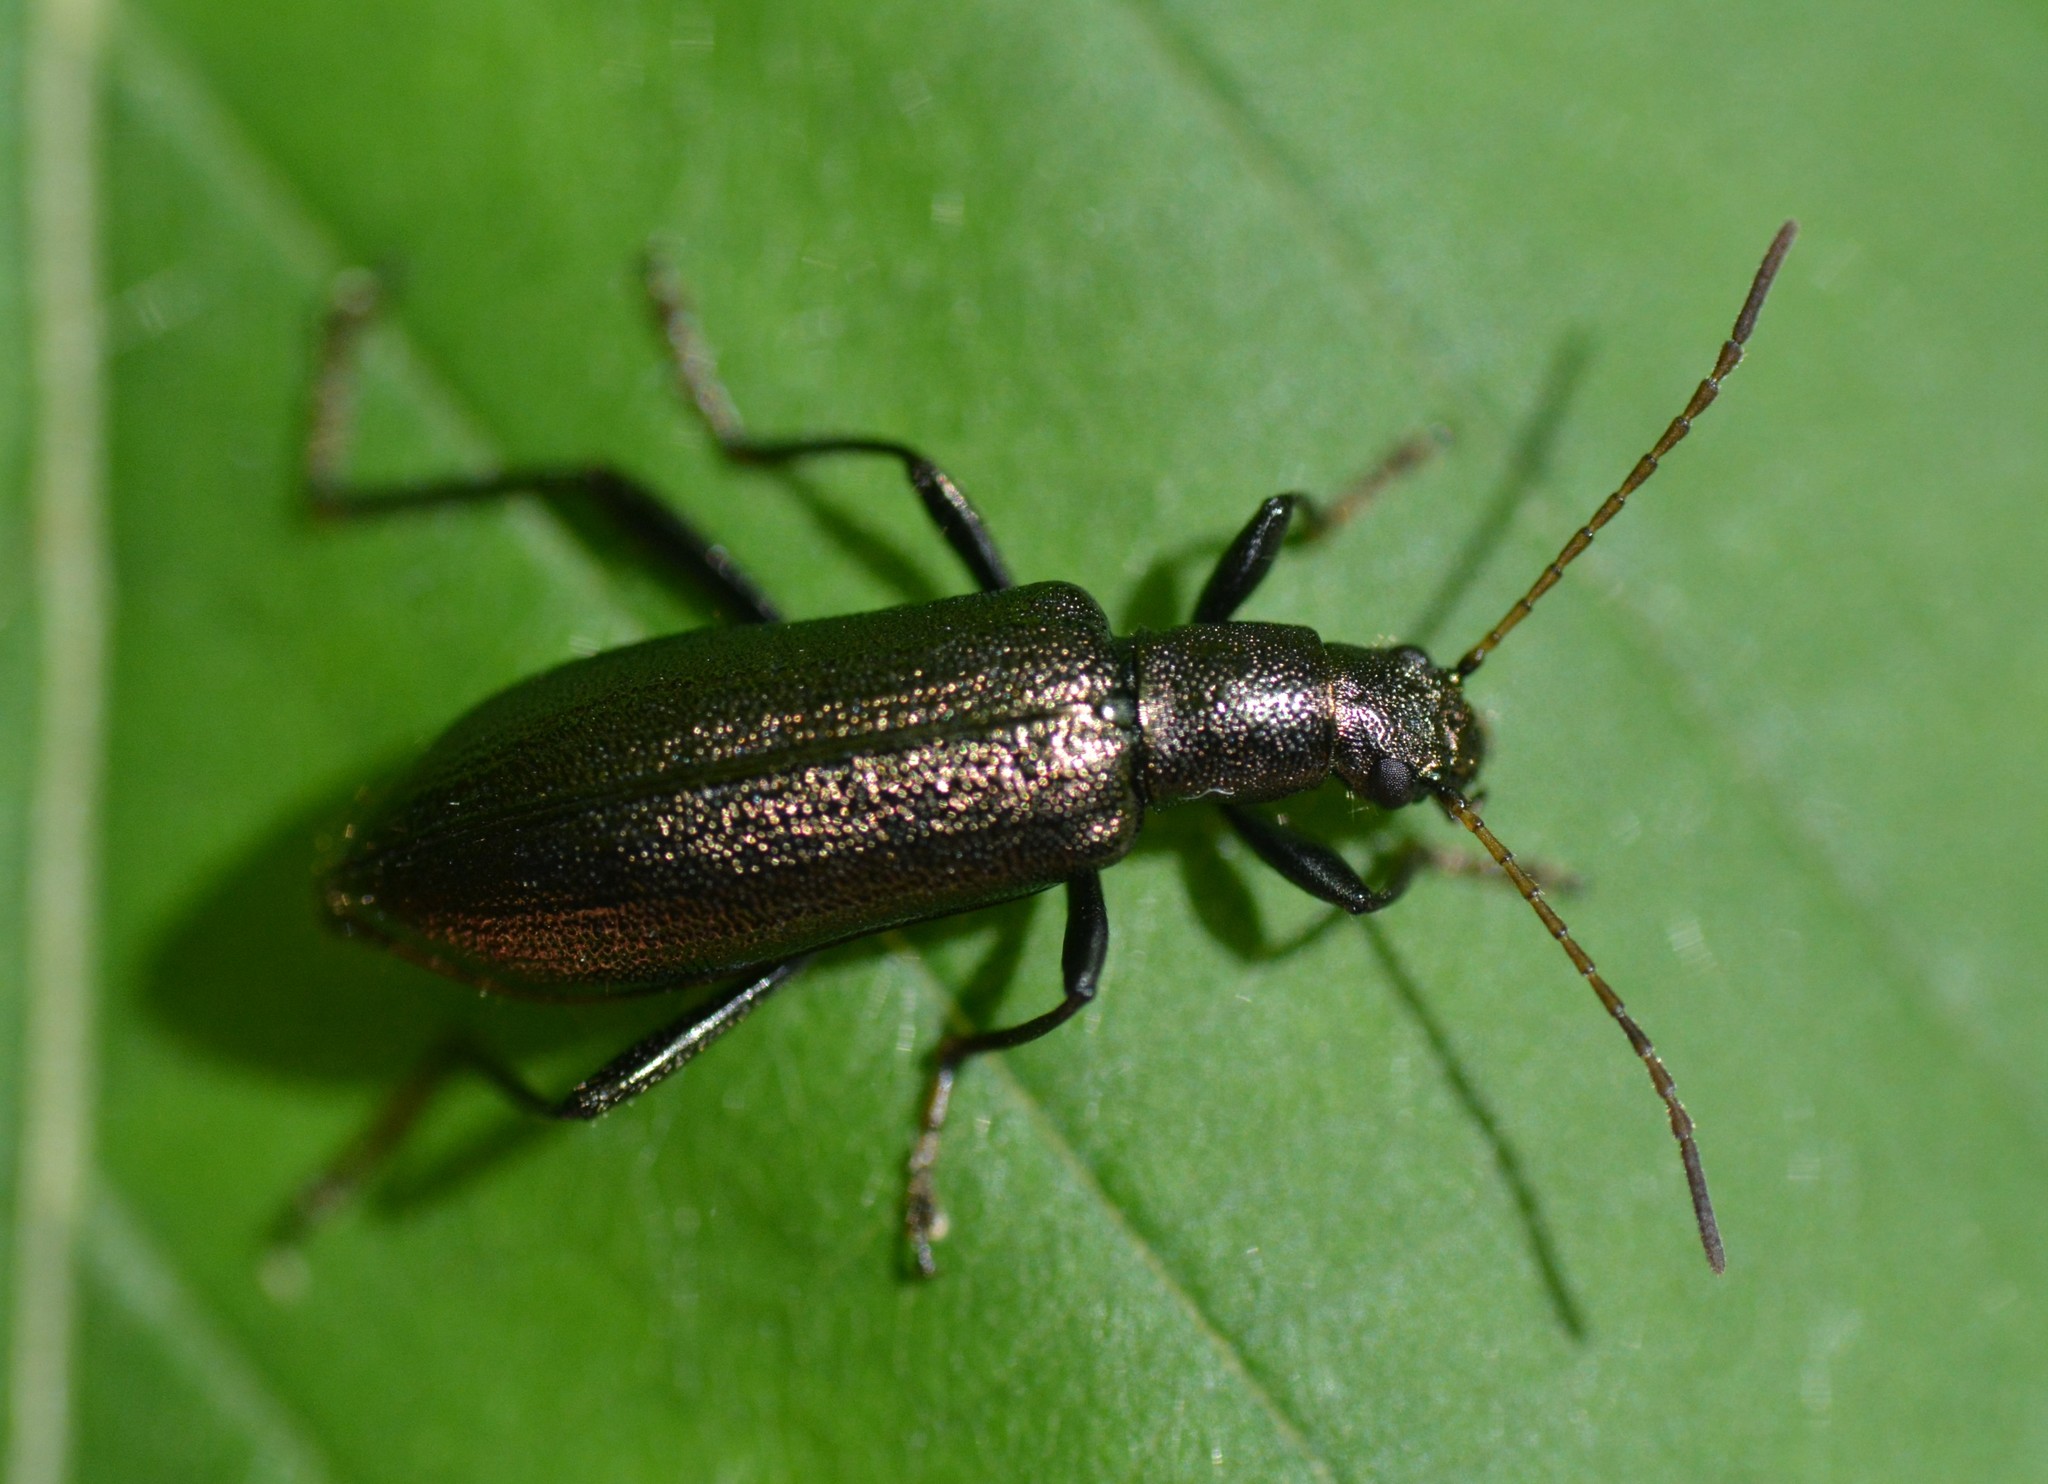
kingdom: Animalia
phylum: Arthropoda
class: Insecta
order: Coleoptera
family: Tenebrionidae
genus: Arthromacra
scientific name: Arthromacra aenea
